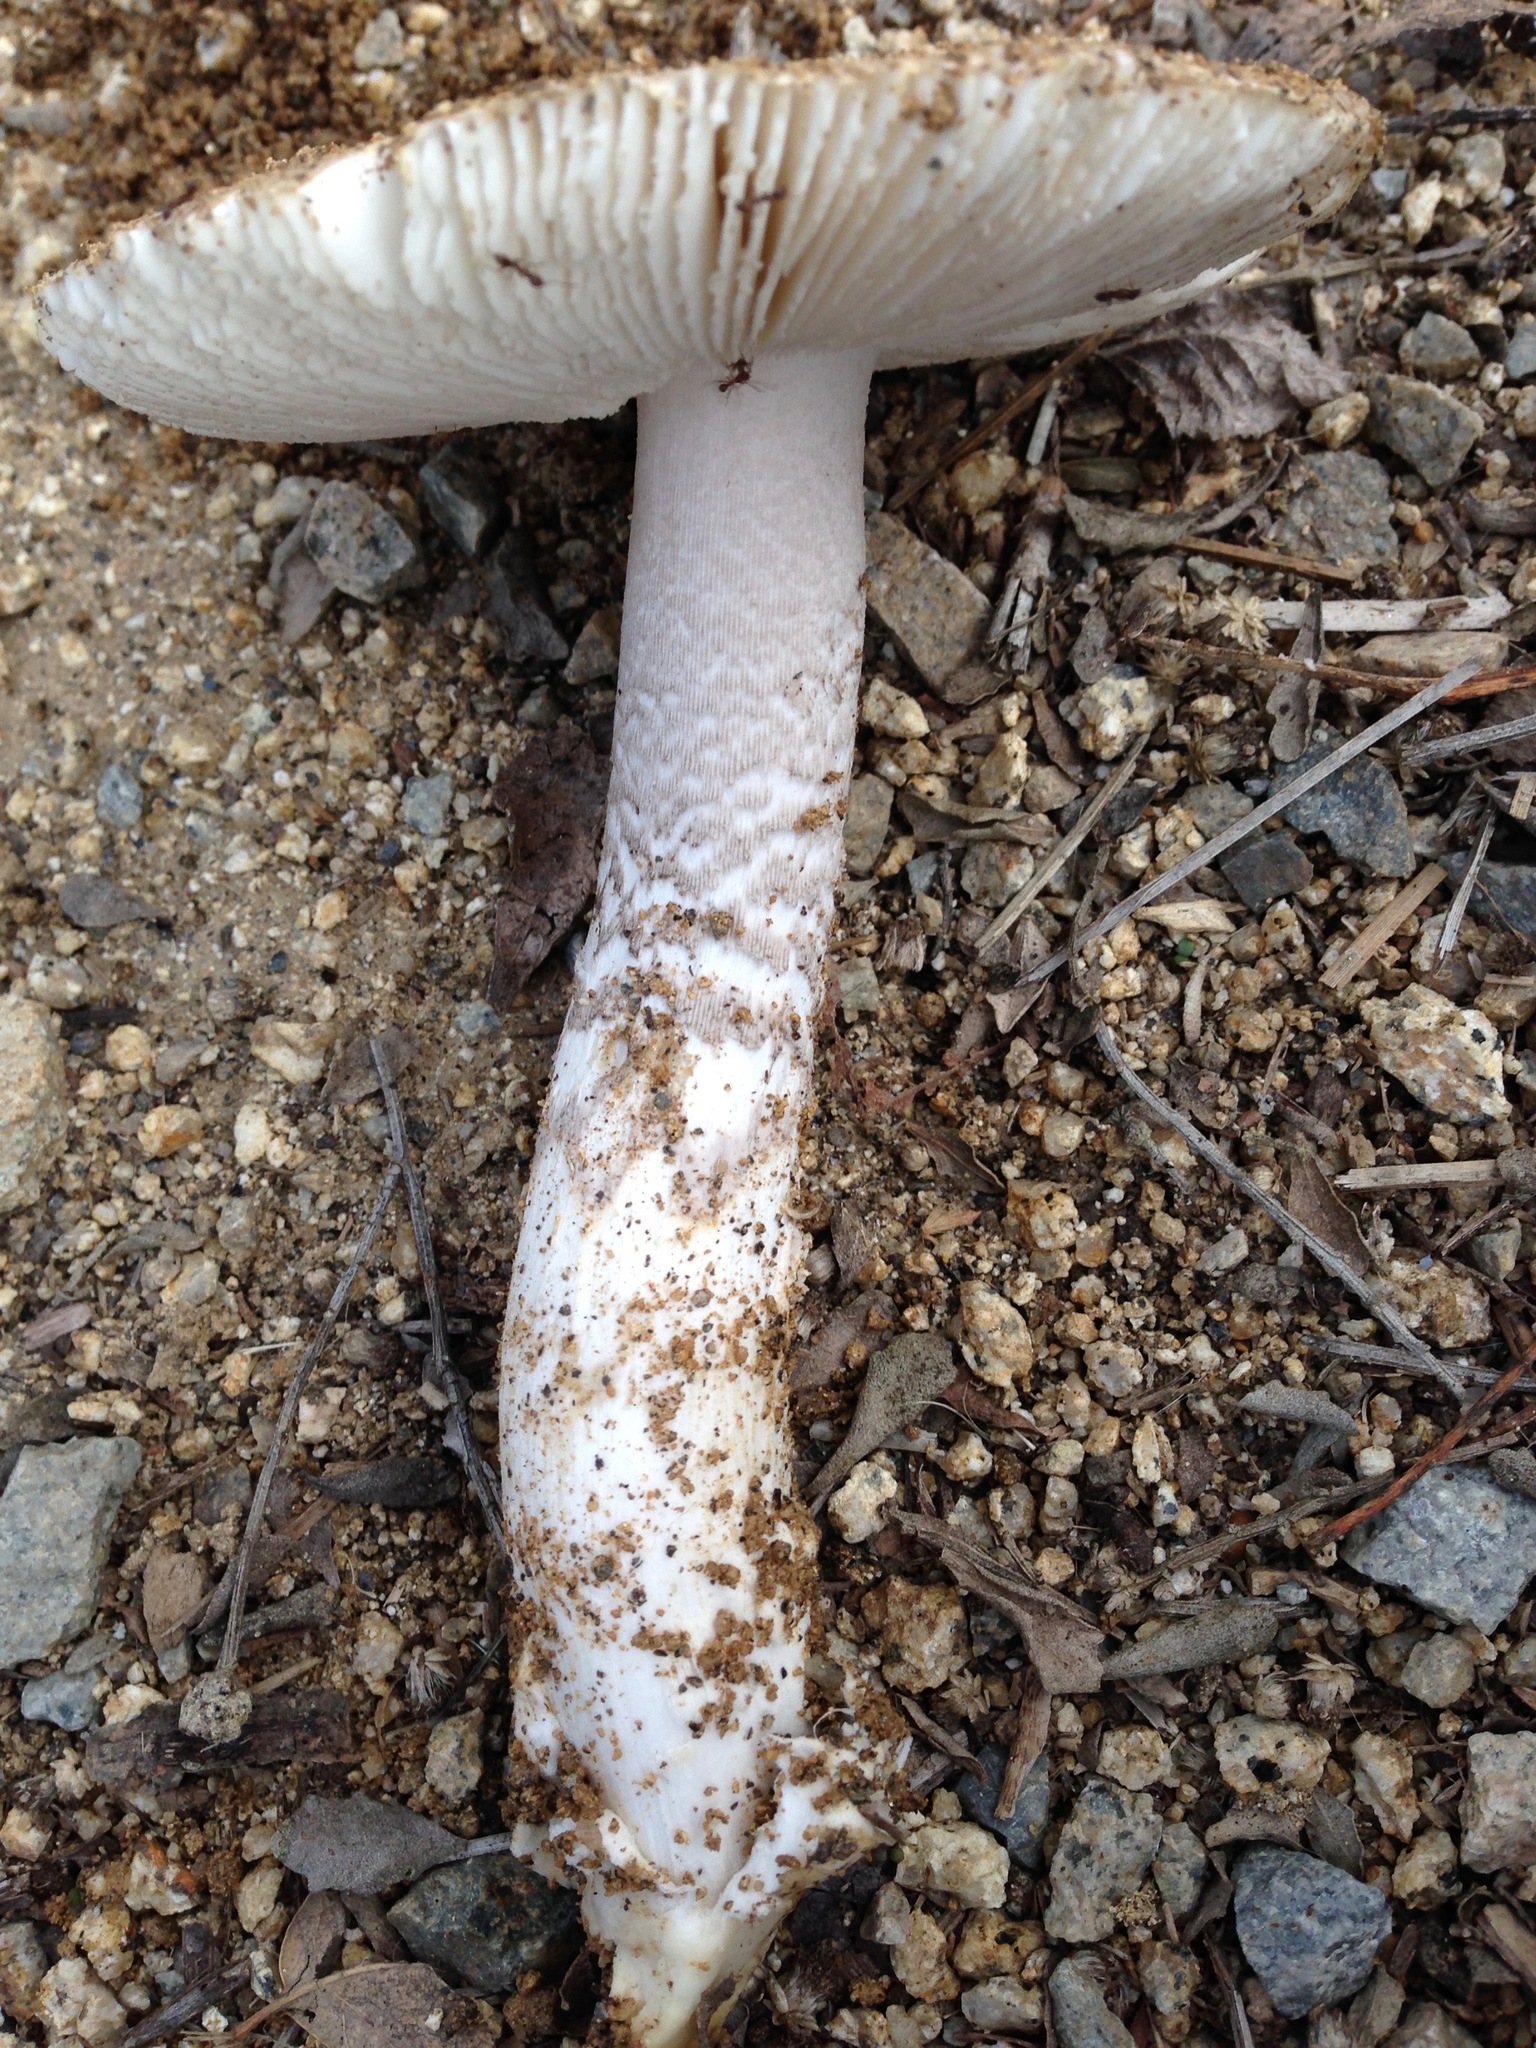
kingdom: Fungi
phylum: Basidiomycota
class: Agaricomycetes
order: Agaricales
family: Amanitaceae
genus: Amanita
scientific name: Amanita protecta
